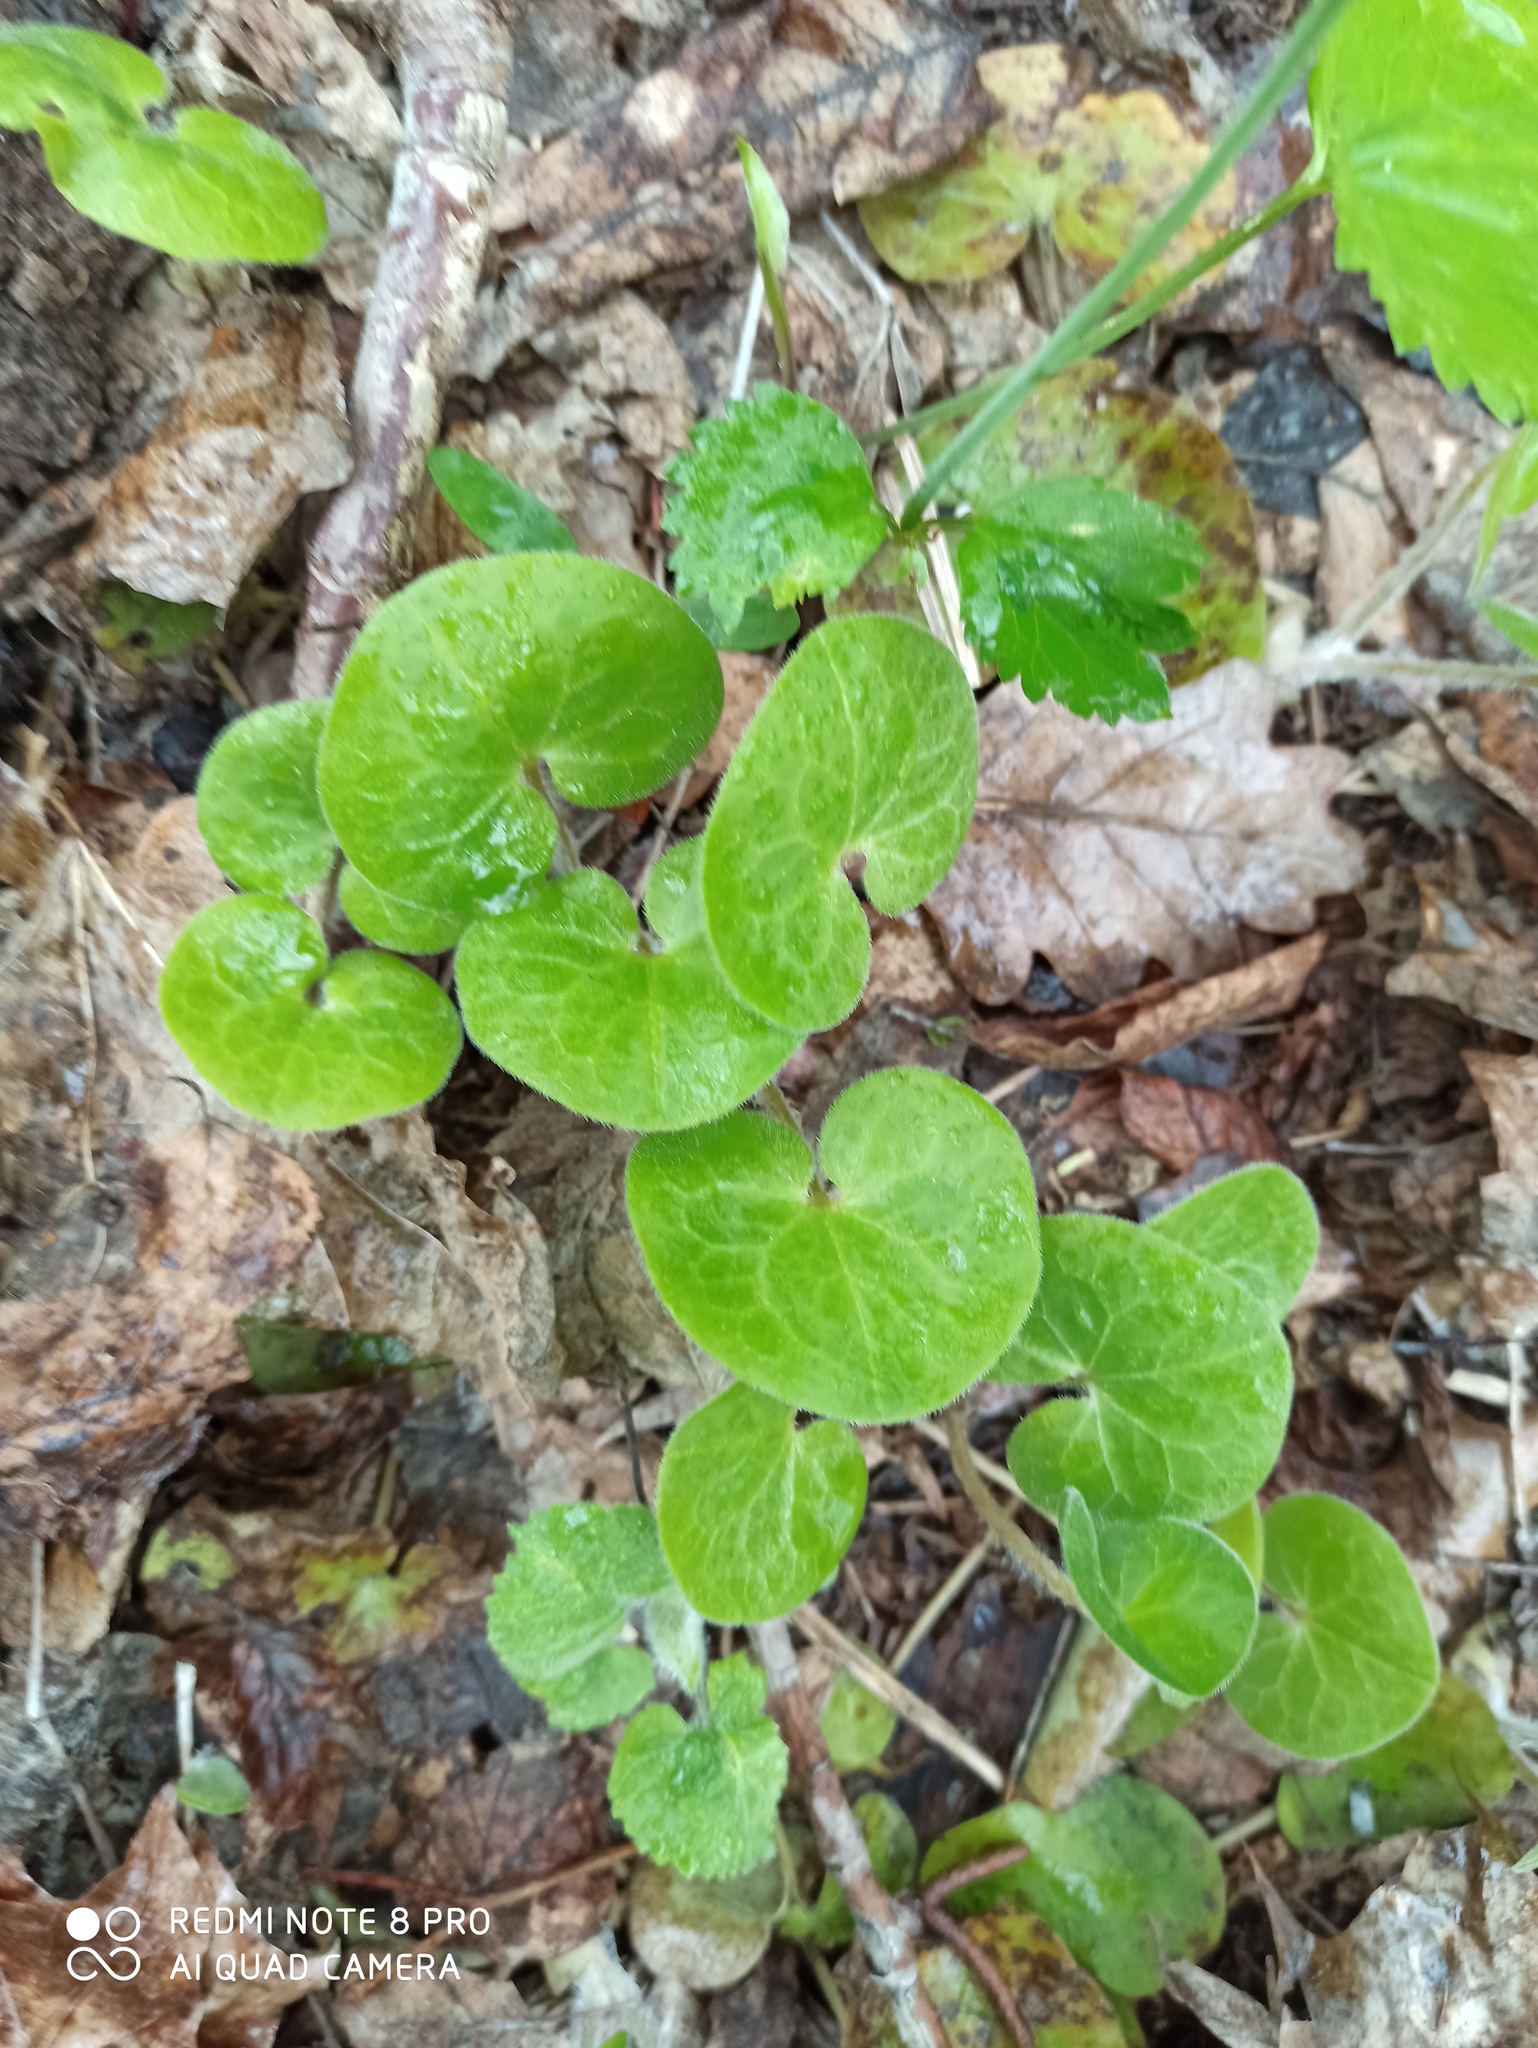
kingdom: Plantae
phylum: Tracheophyta
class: Magnoliopsida
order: Piperales
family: Aristolochiaceae
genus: Asarum
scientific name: Asarum europaeum
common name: Asarabacca
